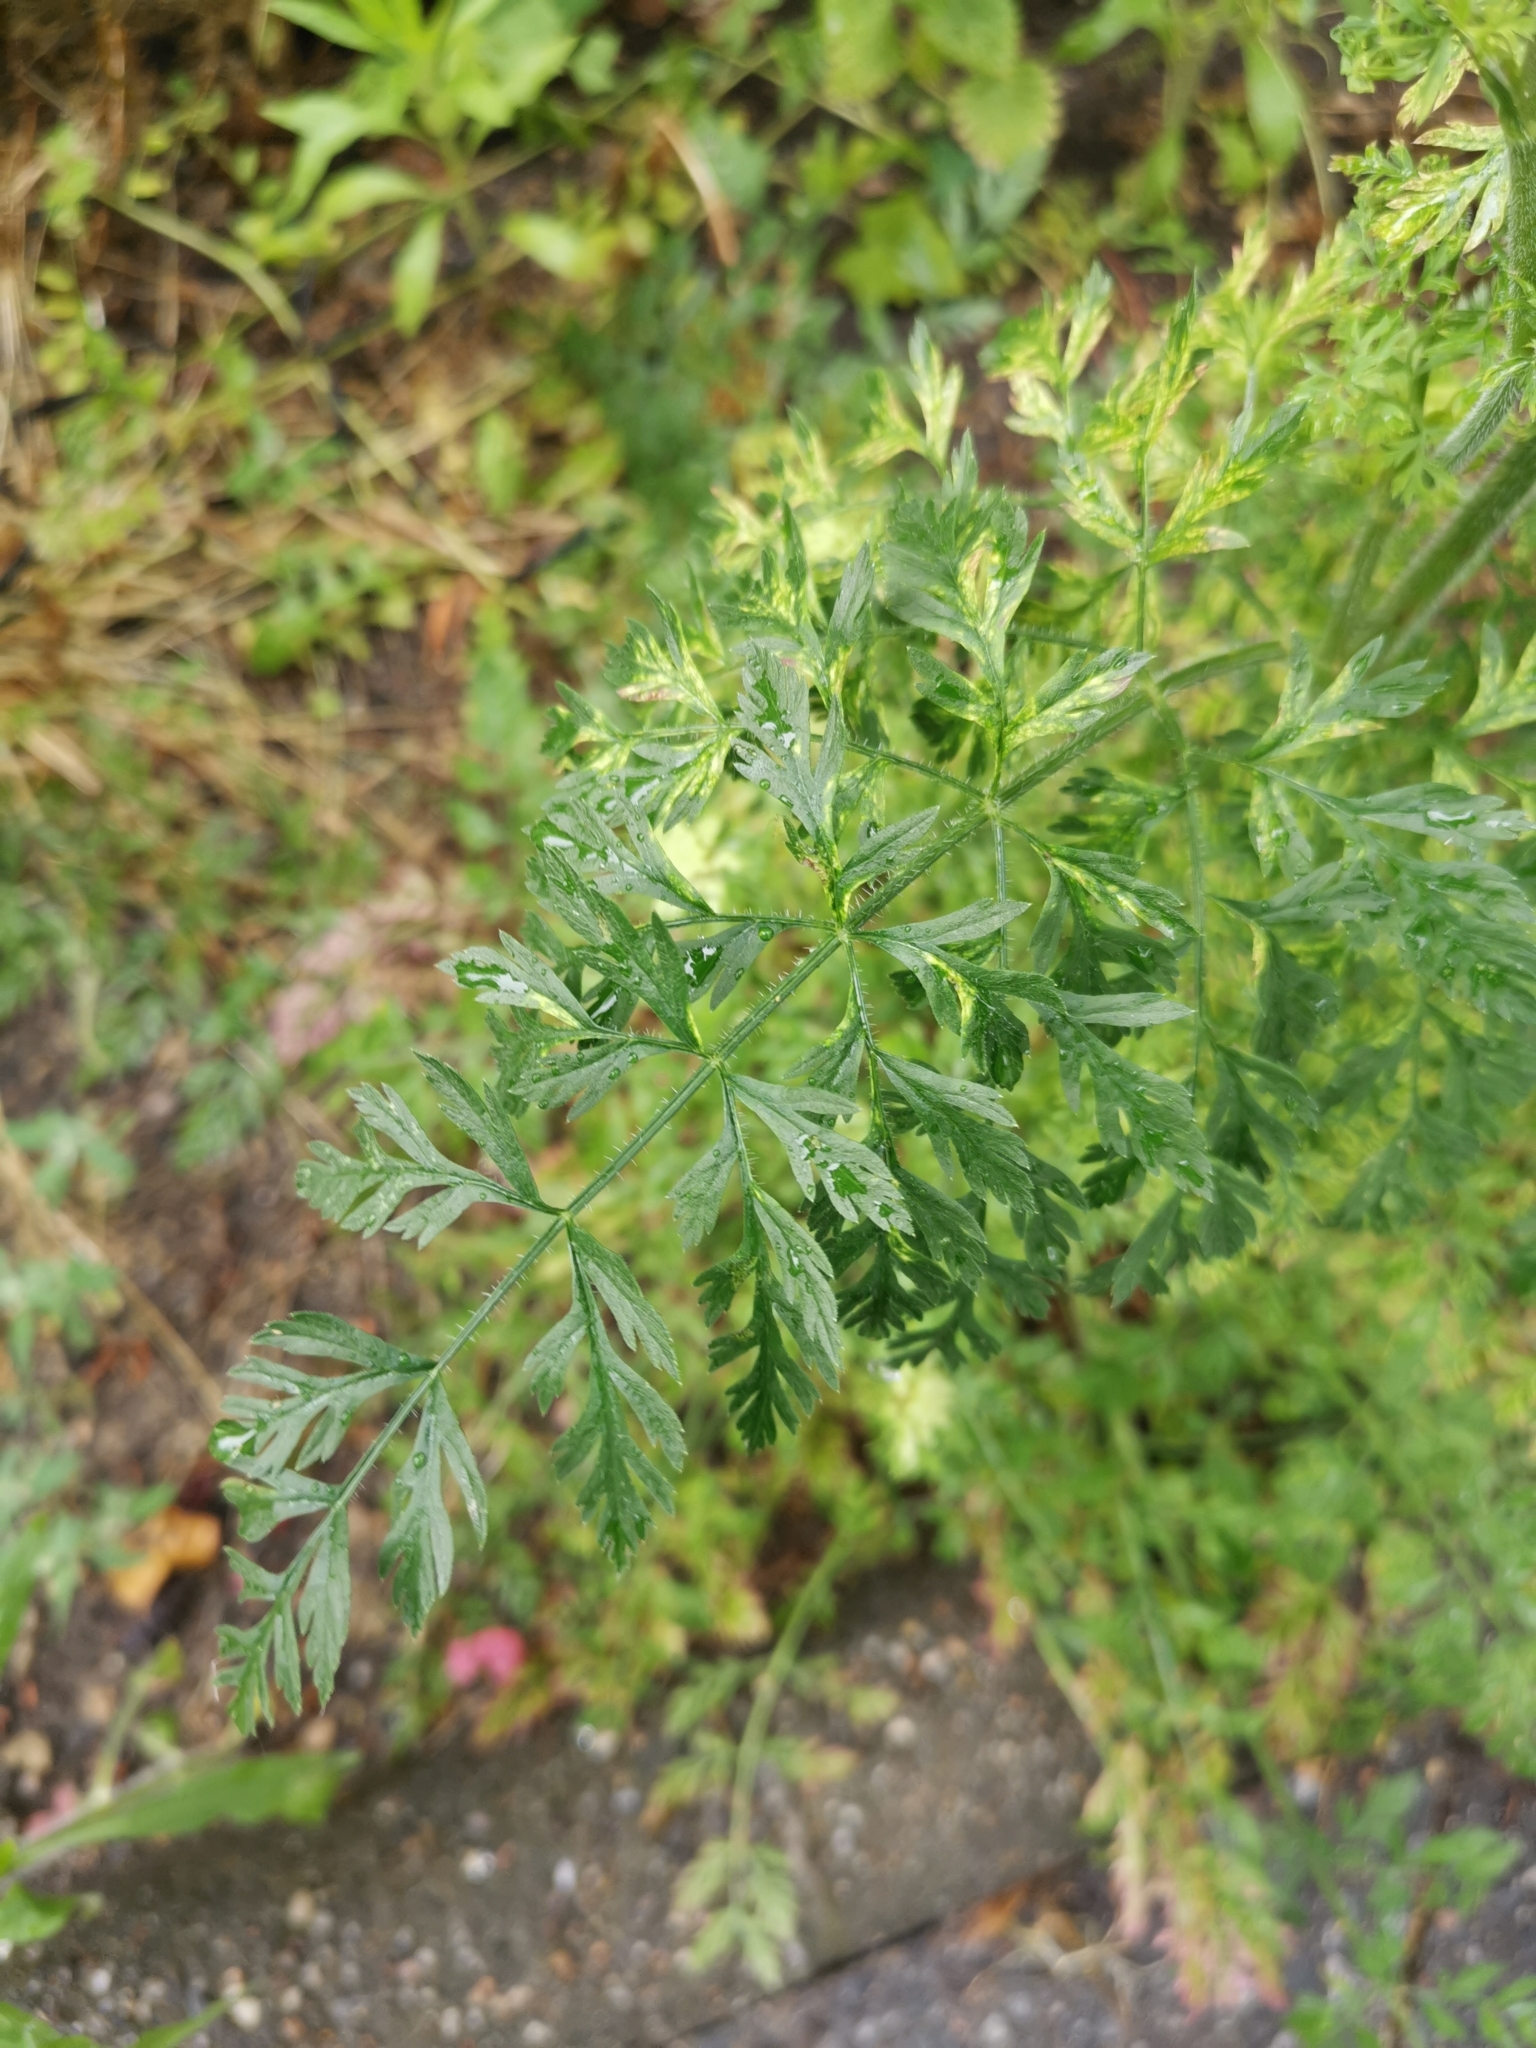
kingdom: Plantae
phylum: Tracheophyta
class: Magnoliopsida
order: Apiales
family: Apiaceae
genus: Daucus
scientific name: Daucus carota
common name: Wild carrot
